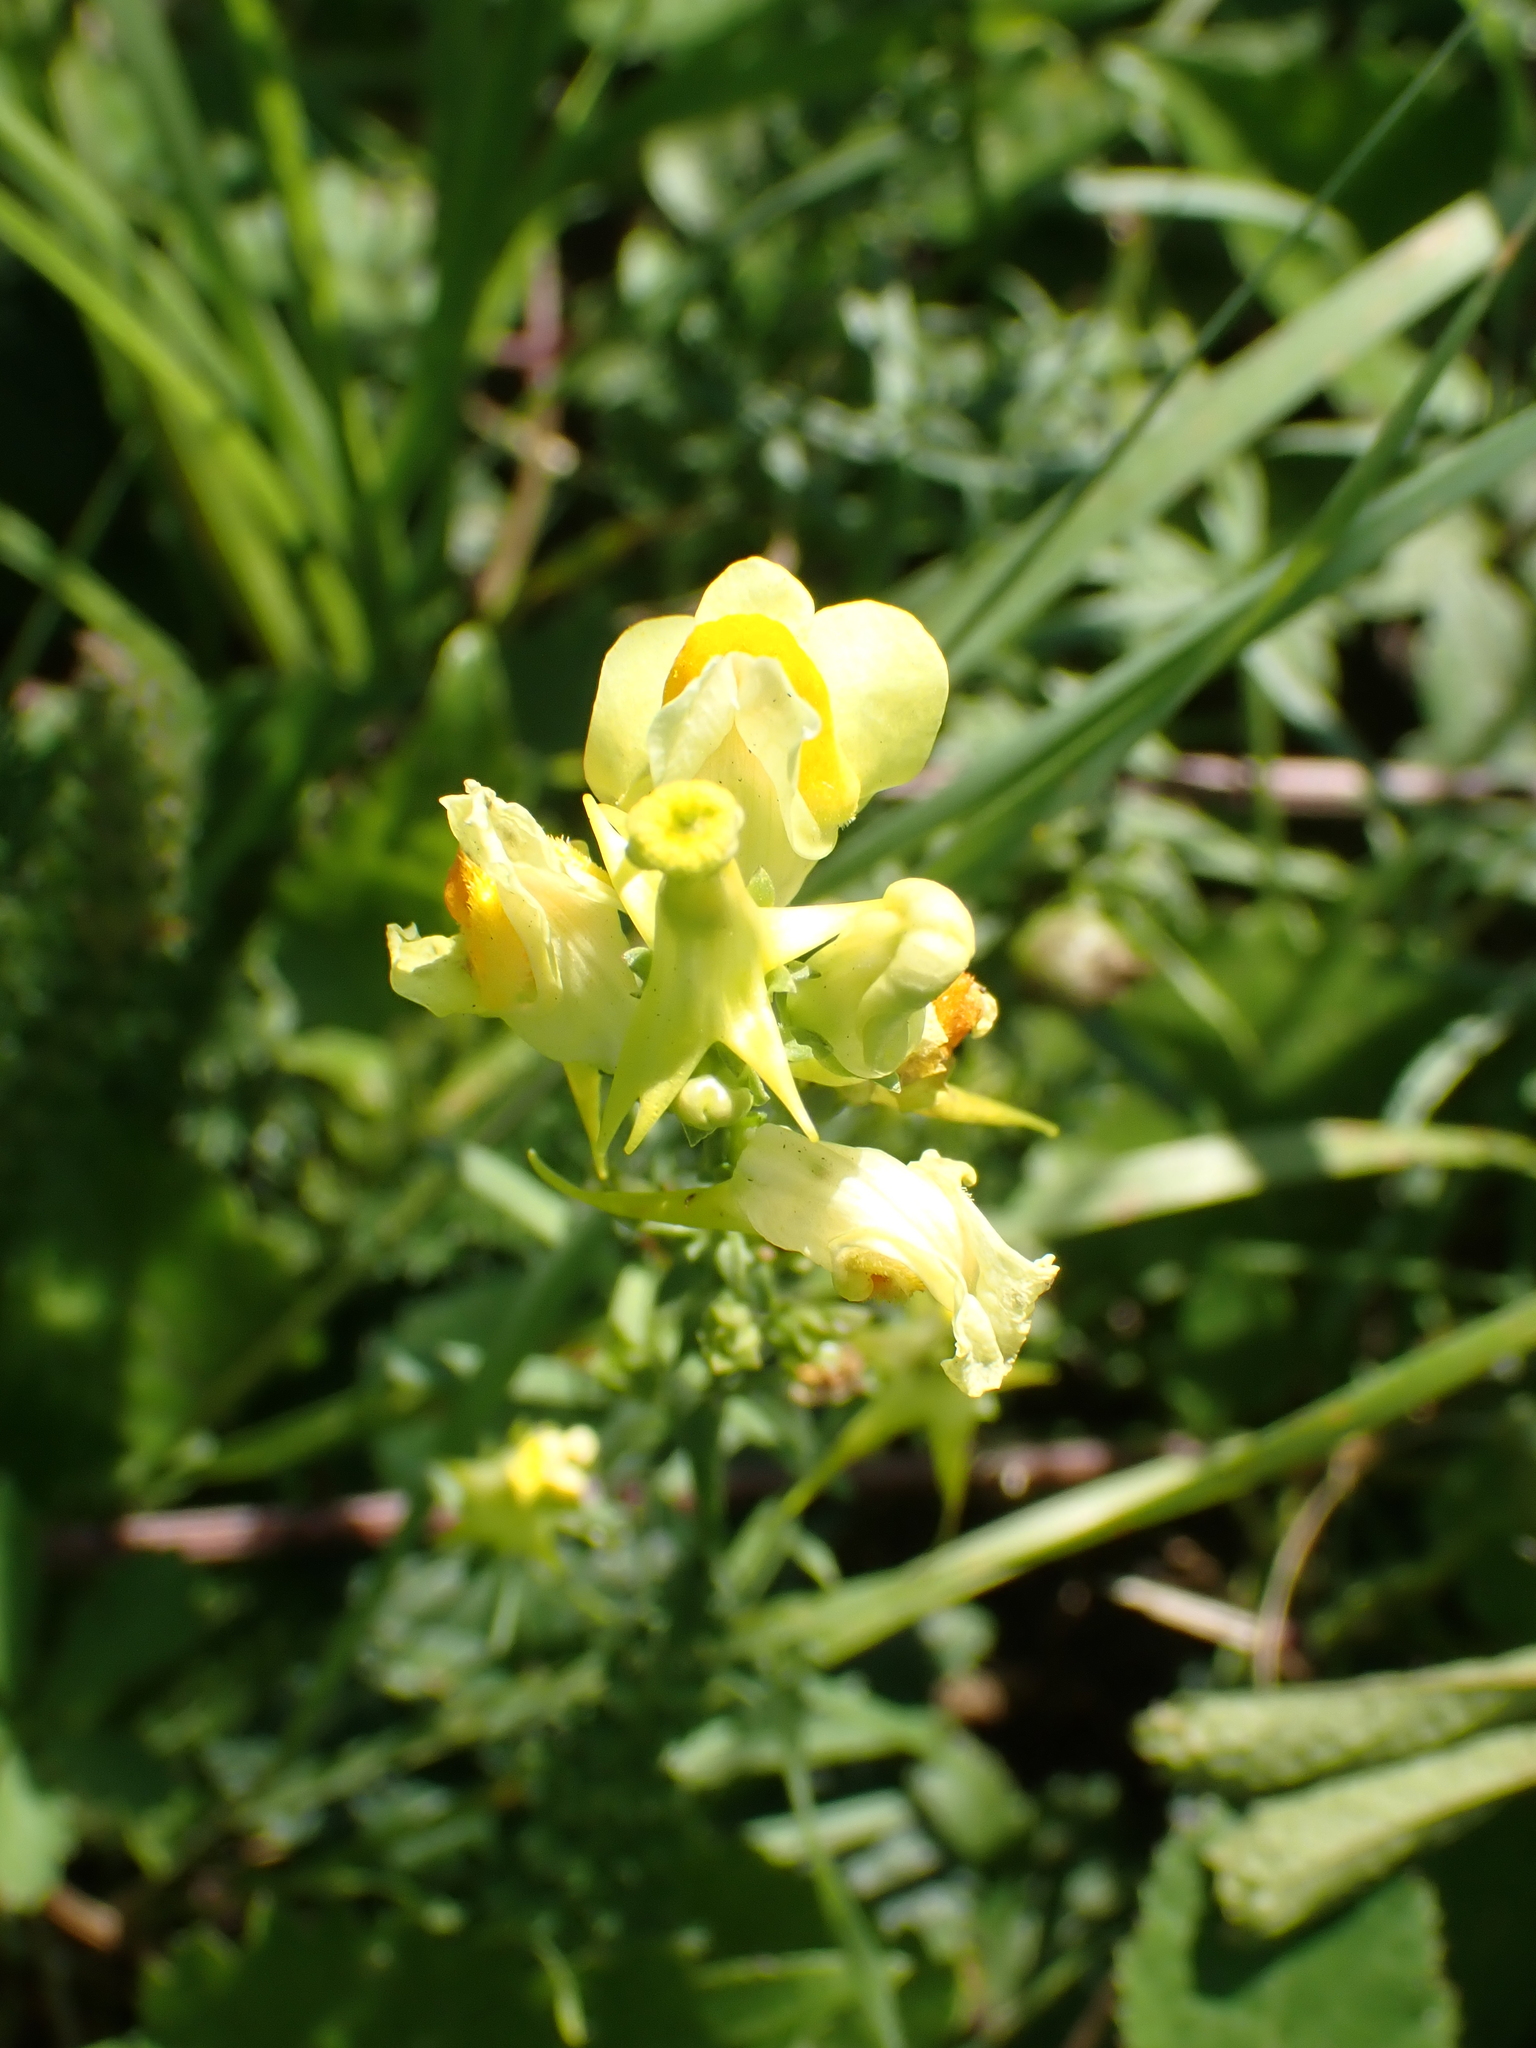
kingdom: Plantae
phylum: Tracheophyta
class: Magnoliopsida
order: Lamiales
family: Plantaginaceae
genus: Linaria
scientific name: Linaria vulgaris
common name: Butter and eggs
